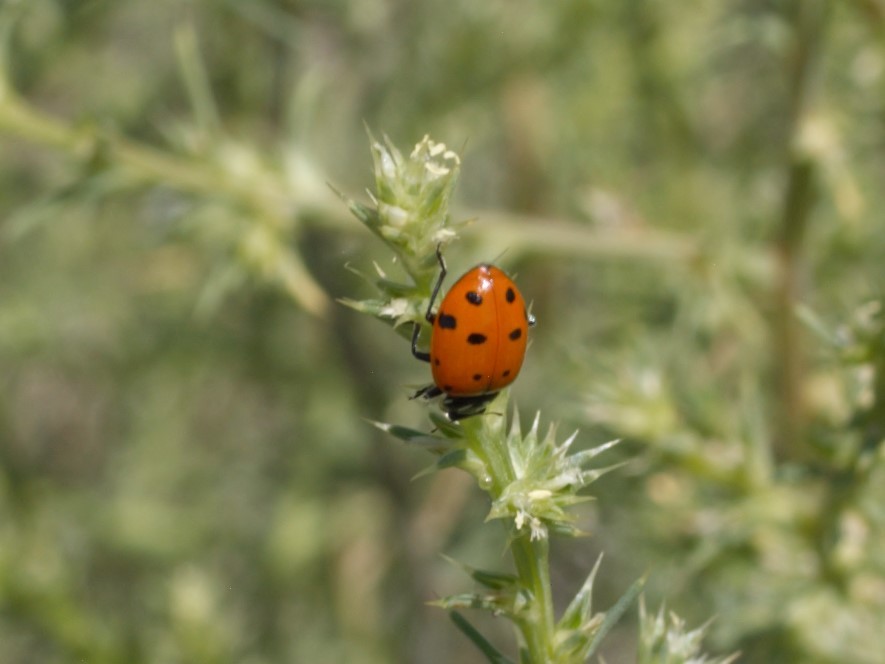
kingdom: Animalia
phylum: Arthropoda
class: Insecta
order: Coleoptera
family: Coccinellidae
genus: Hippodamia
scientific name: Hippodamia convergens
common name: Convergent lady beetle
